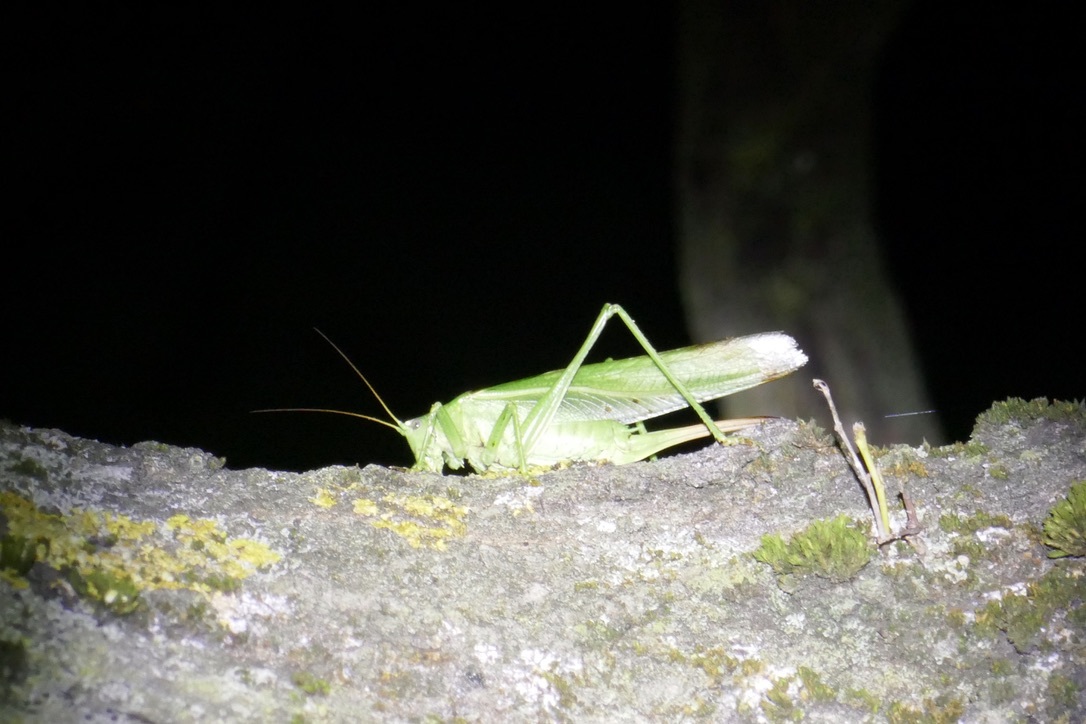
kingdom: Animalia
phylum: Arthropoda
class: Insecta
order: Orthoptera
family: Tettigoniidae
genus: Tettigonia
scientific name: Tettigonia viridissima
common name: Great green bush-cricket
